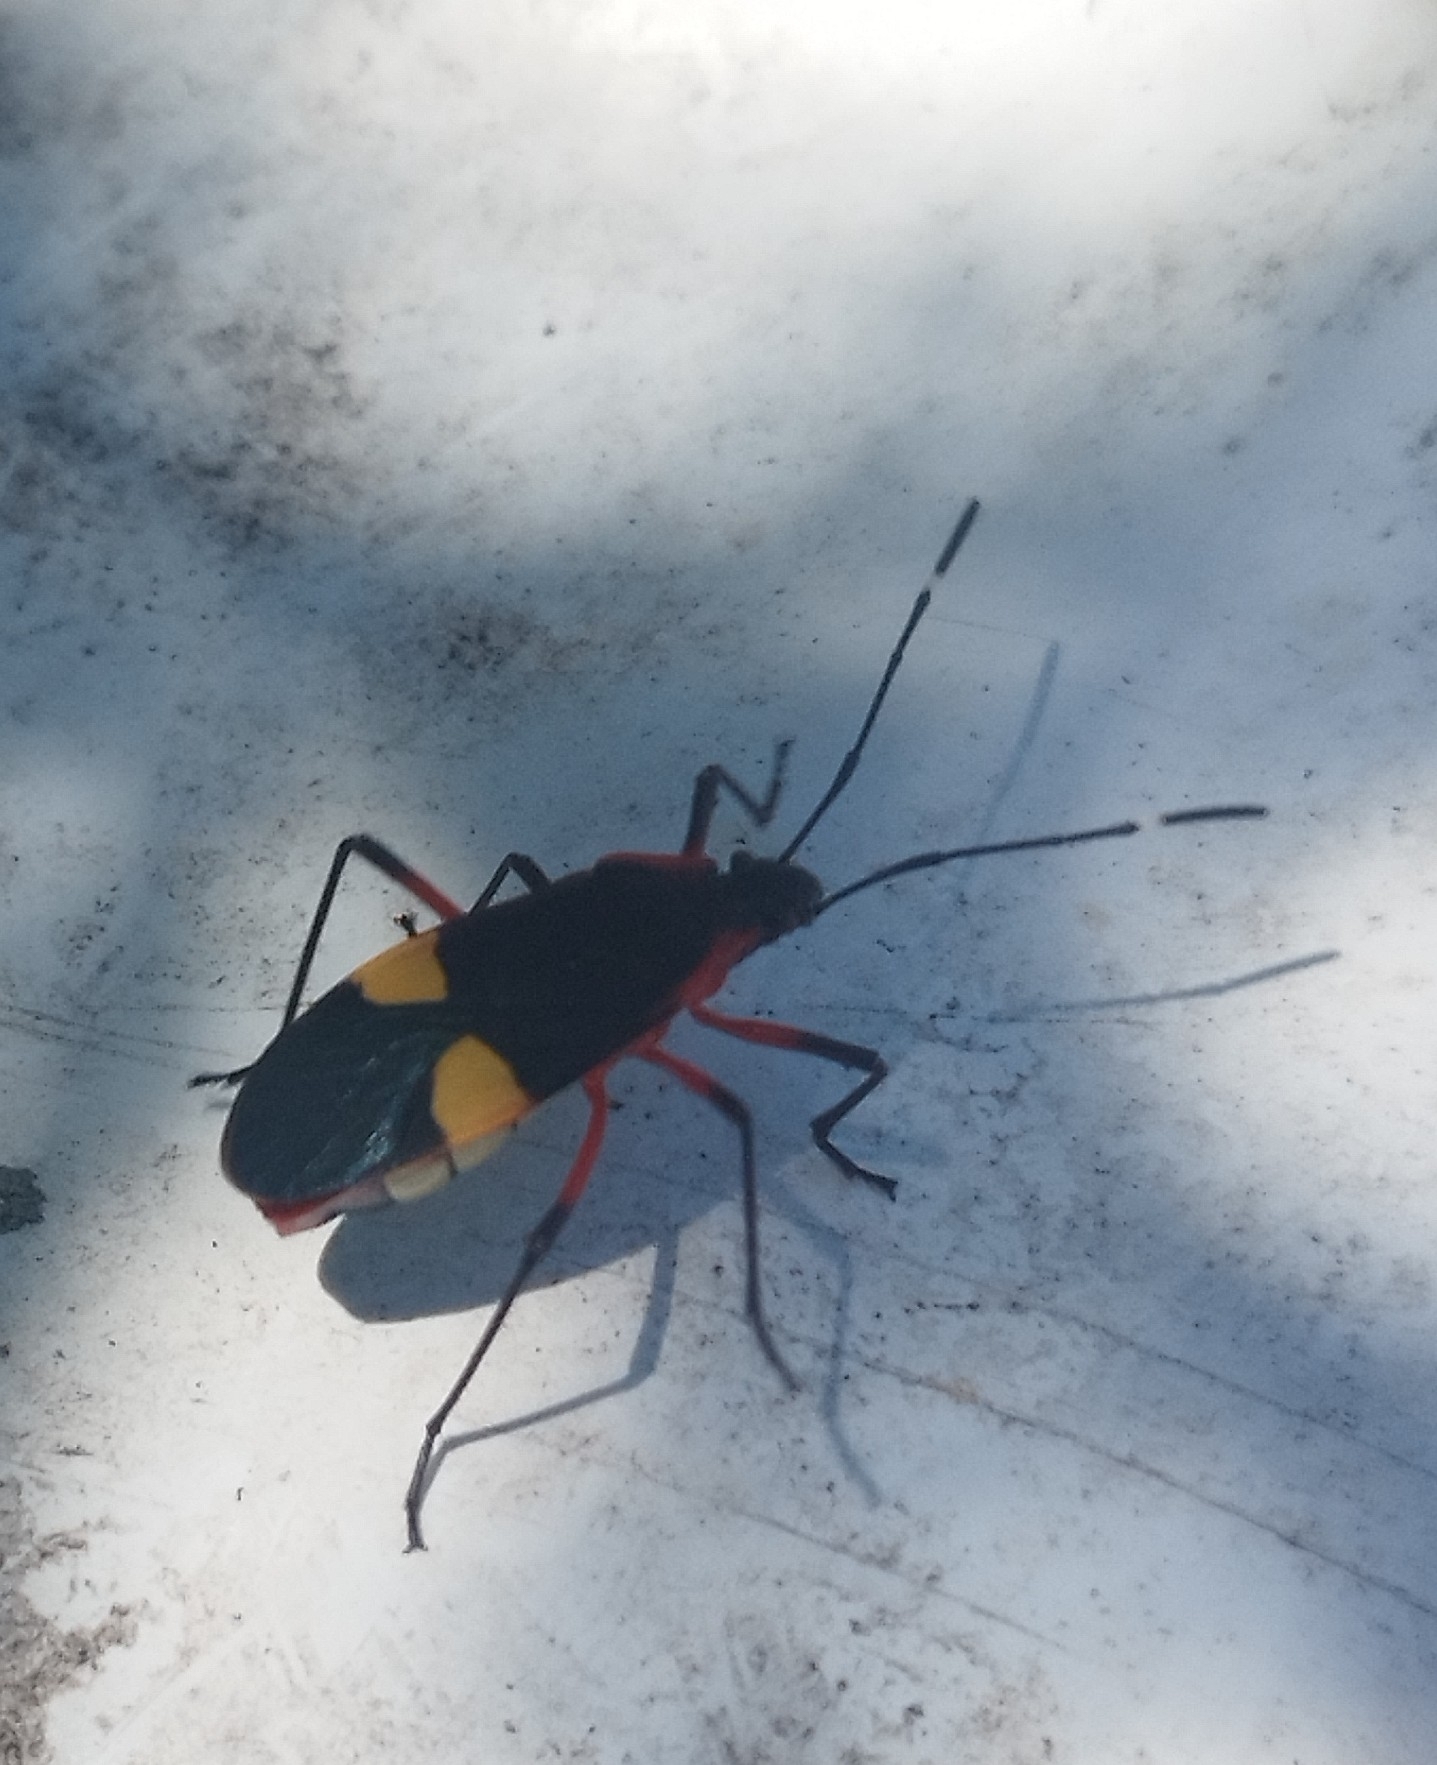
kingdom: Animalia
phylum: Arthropoda
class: Insecta
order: Hemiptera
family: Pyrrhocoridae
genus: Dysdercus
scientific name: Dysdercus albofasciatus
